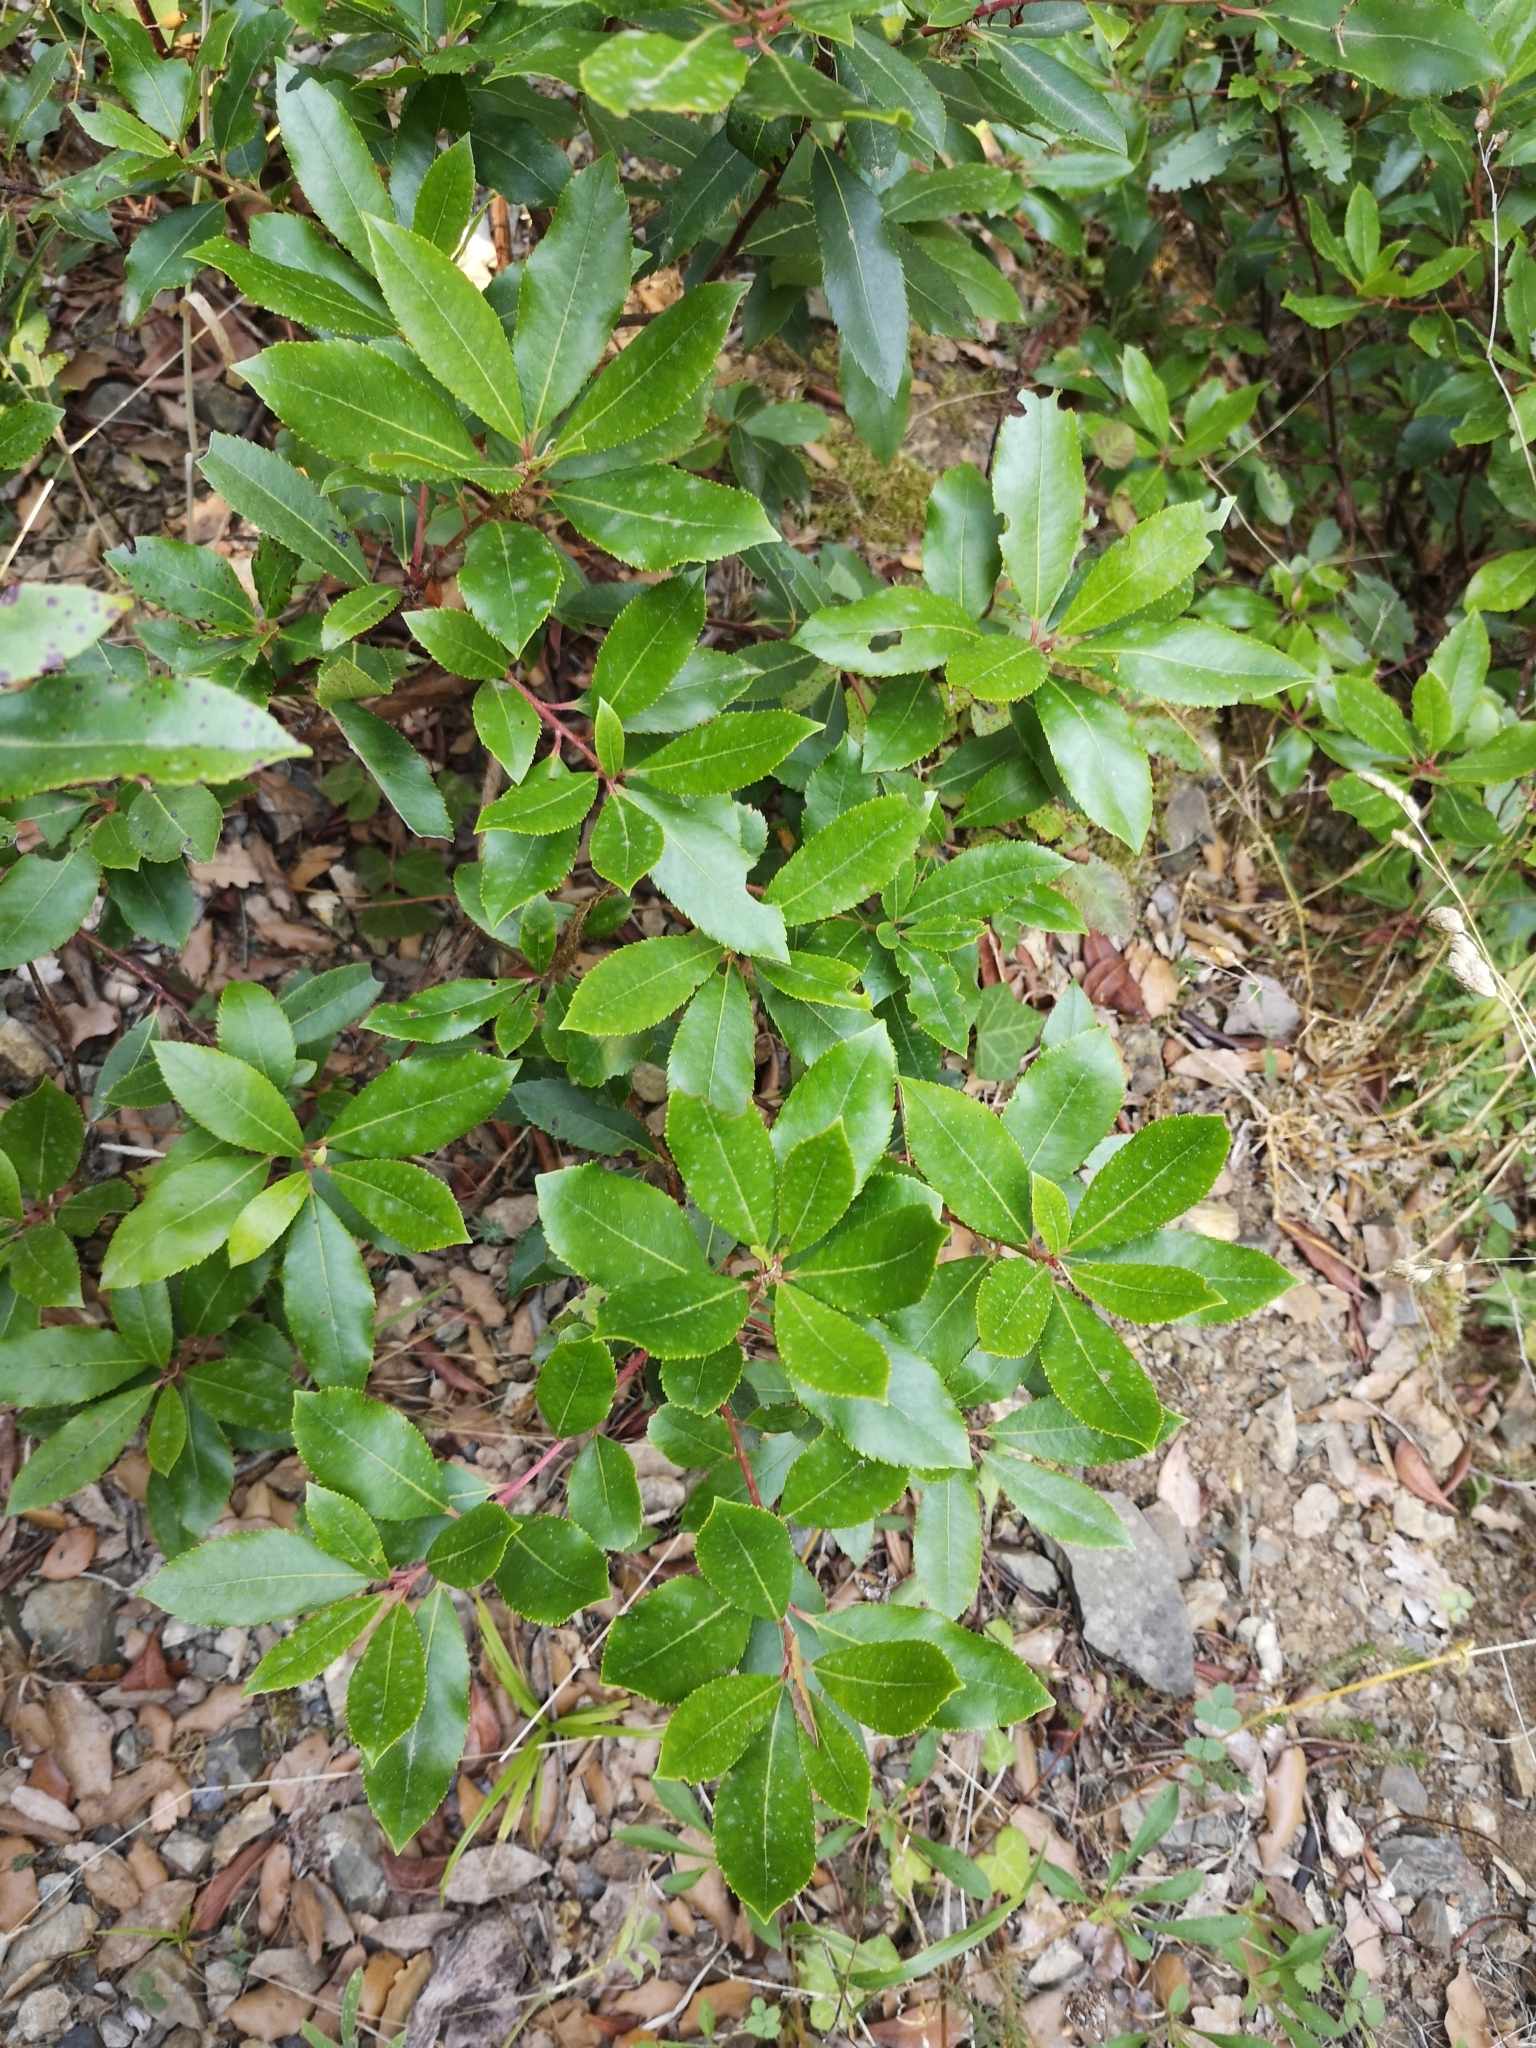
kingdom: Plantae
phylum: Tracheophyta
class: Magnoliopsida
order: Ericales
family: Ericaceae
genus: Arbutus
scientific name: Arbutus unedo
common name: Strawberry-tree
